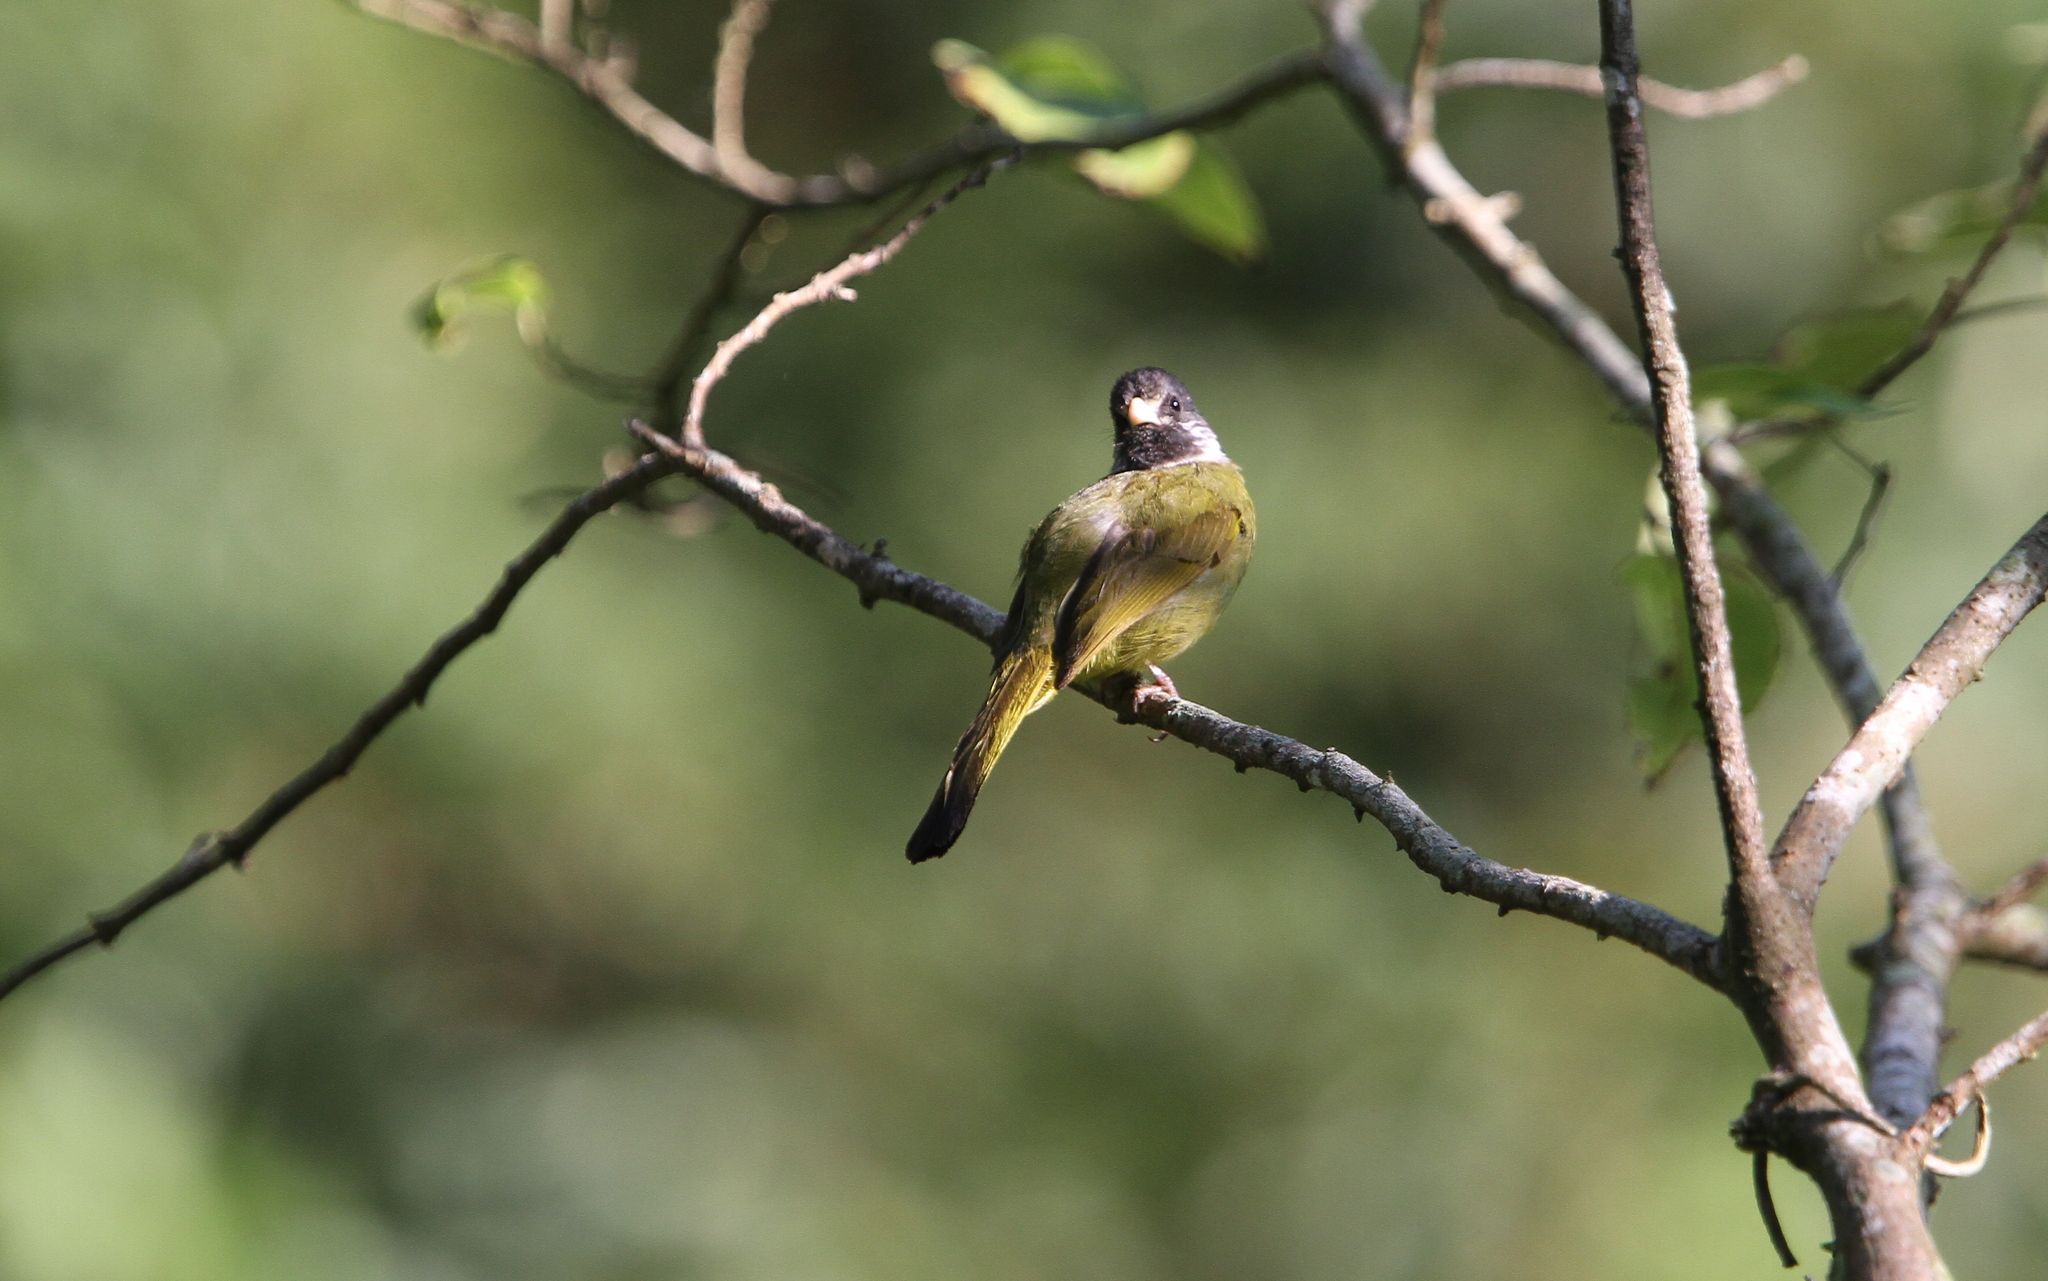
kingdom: Animalia
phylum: Chordata
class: Aves
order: Passeriformes
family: Pycnonotidae
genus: Spizixos
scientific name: Spizixos semitorques
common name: Collared finchbill
